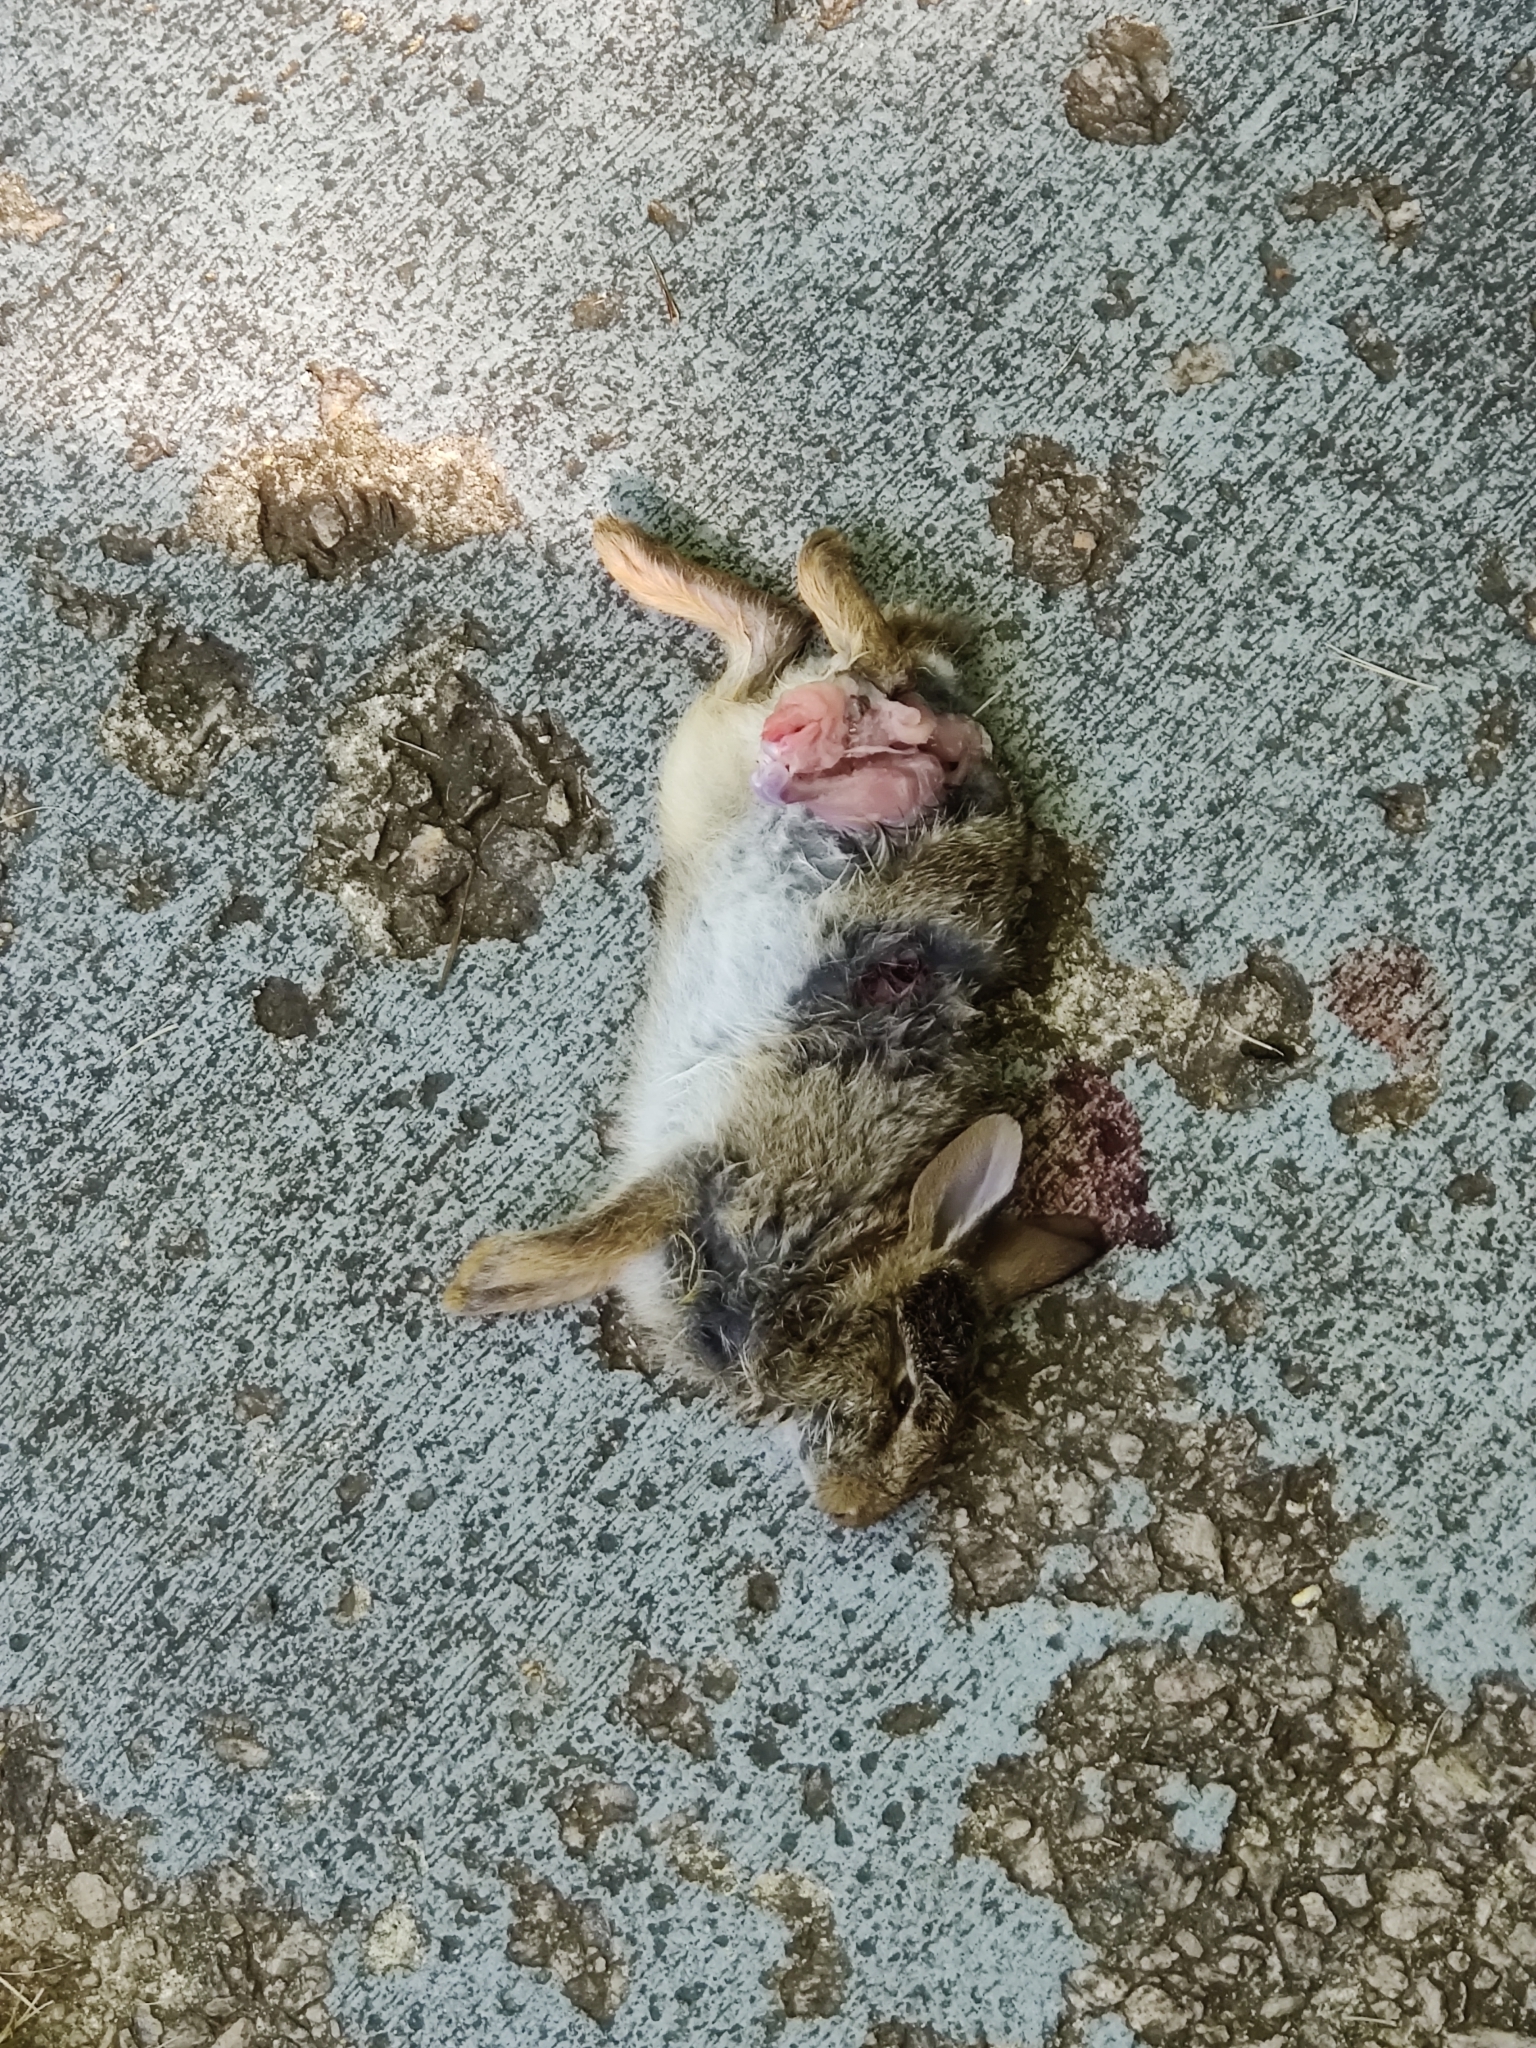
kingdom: Animalia
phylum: Chordata
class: Mammalia
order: Lagomorpha
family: Leporidae
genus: Sylvilagus
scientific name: Sylvilagus floridanus
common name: Eastern cottontail
